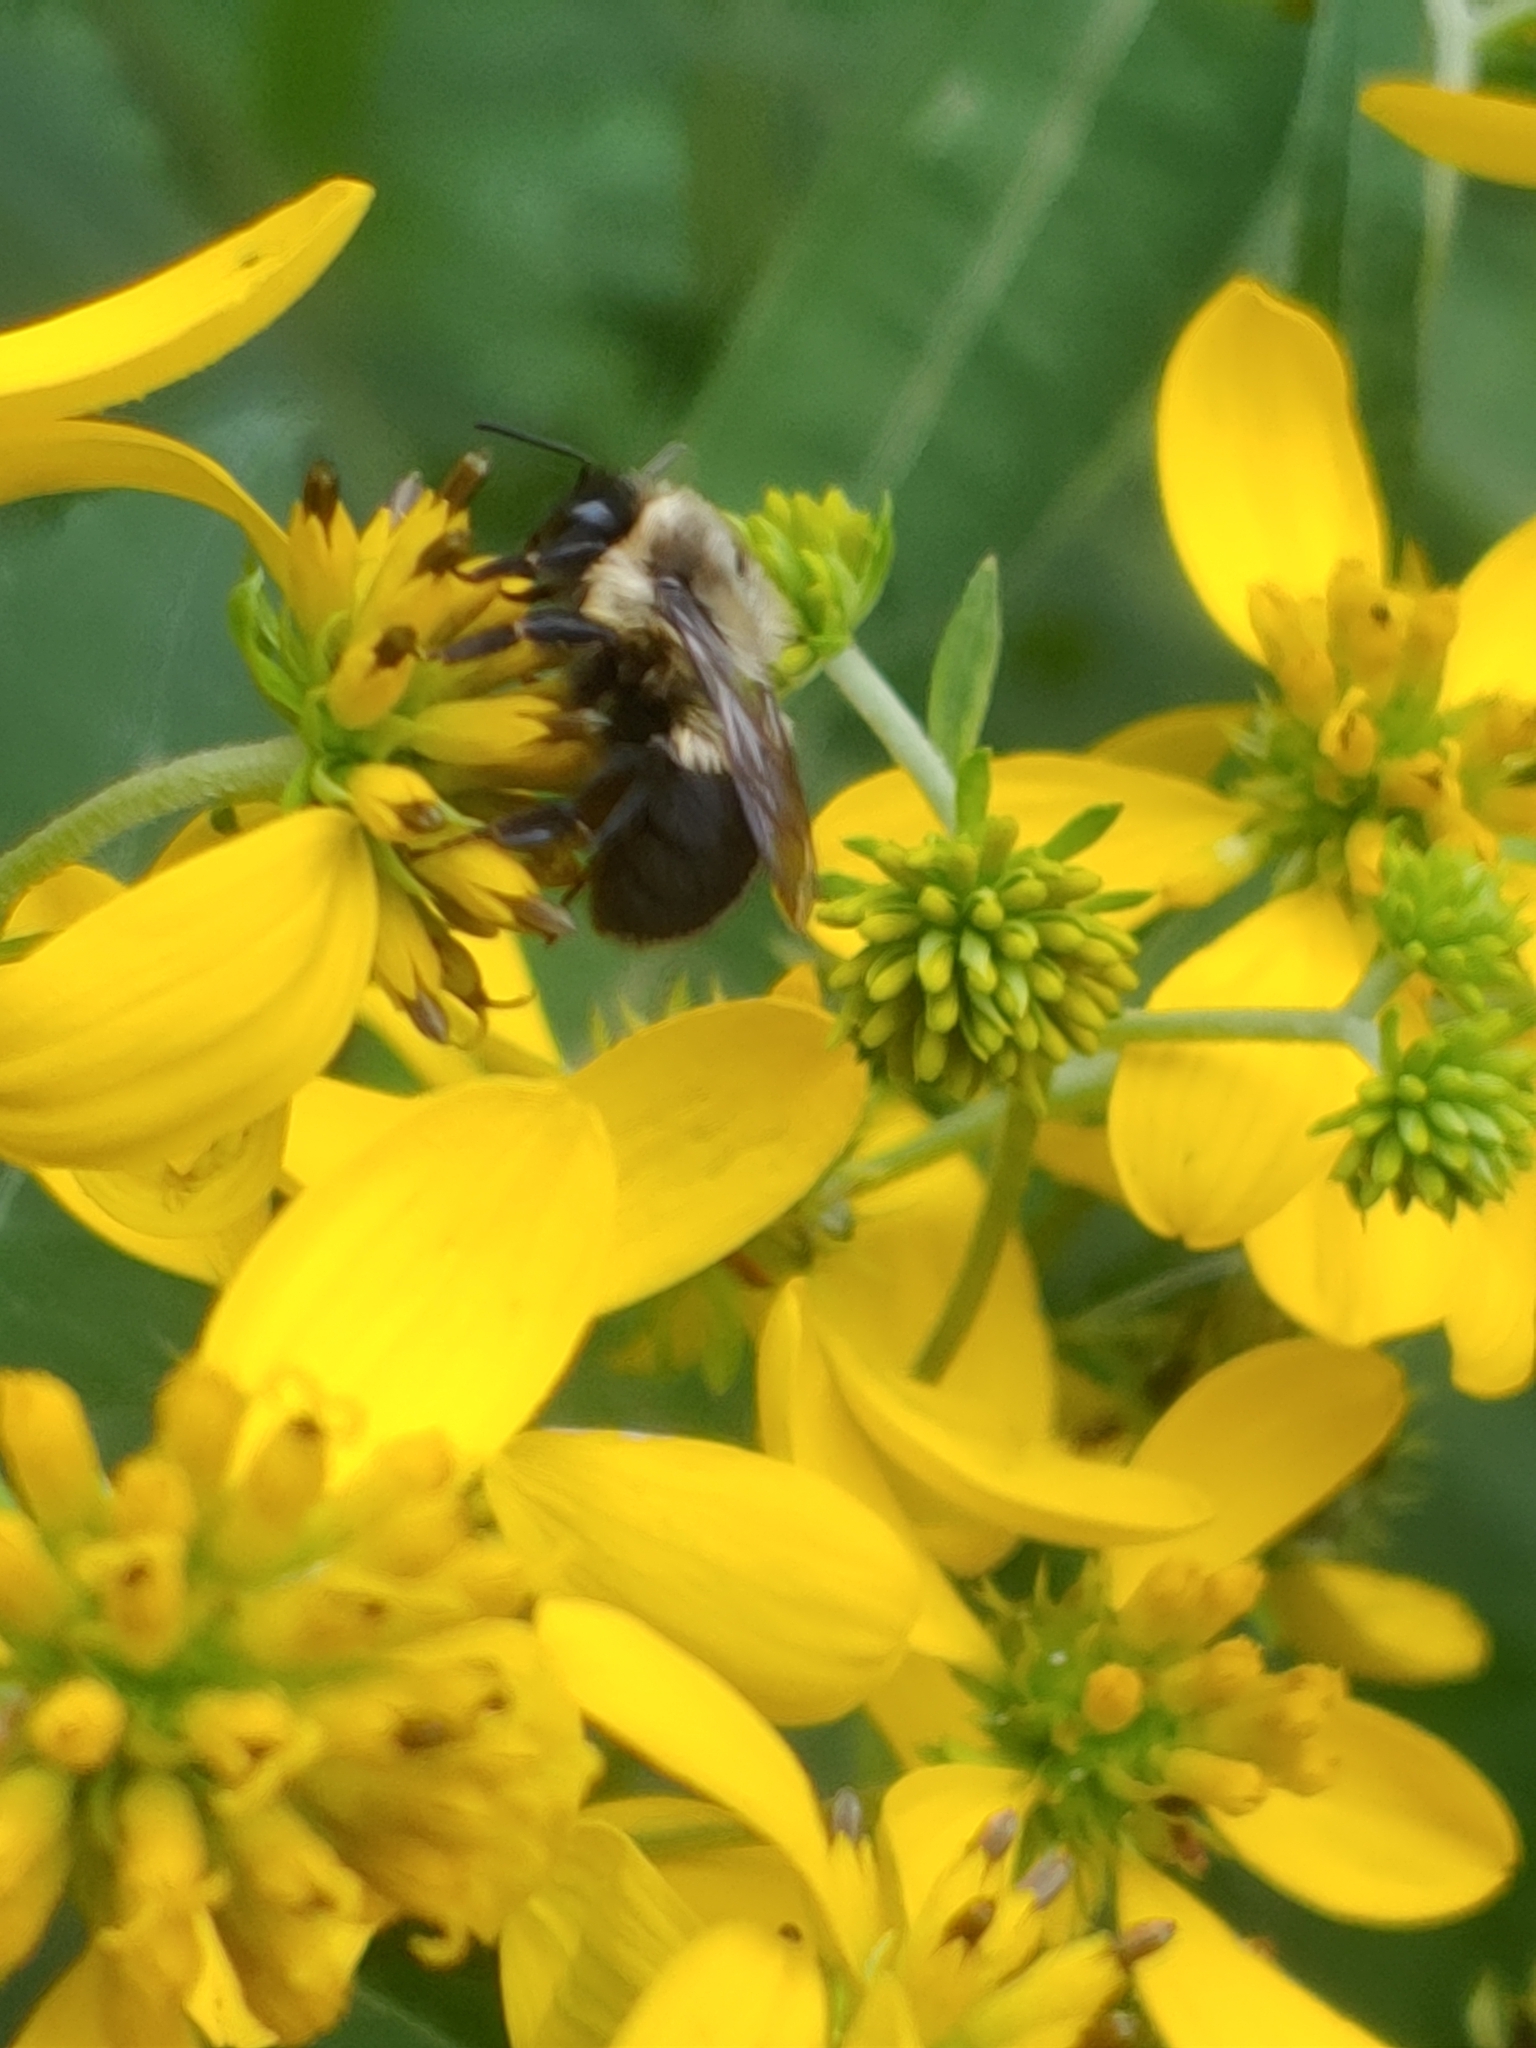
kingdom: Animalia
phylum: Arthropoda
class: Insecta
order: Hymenoptera
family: Apidae
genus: Bombus
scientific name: Bombus impatiens
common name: Common eastern bumble bee
